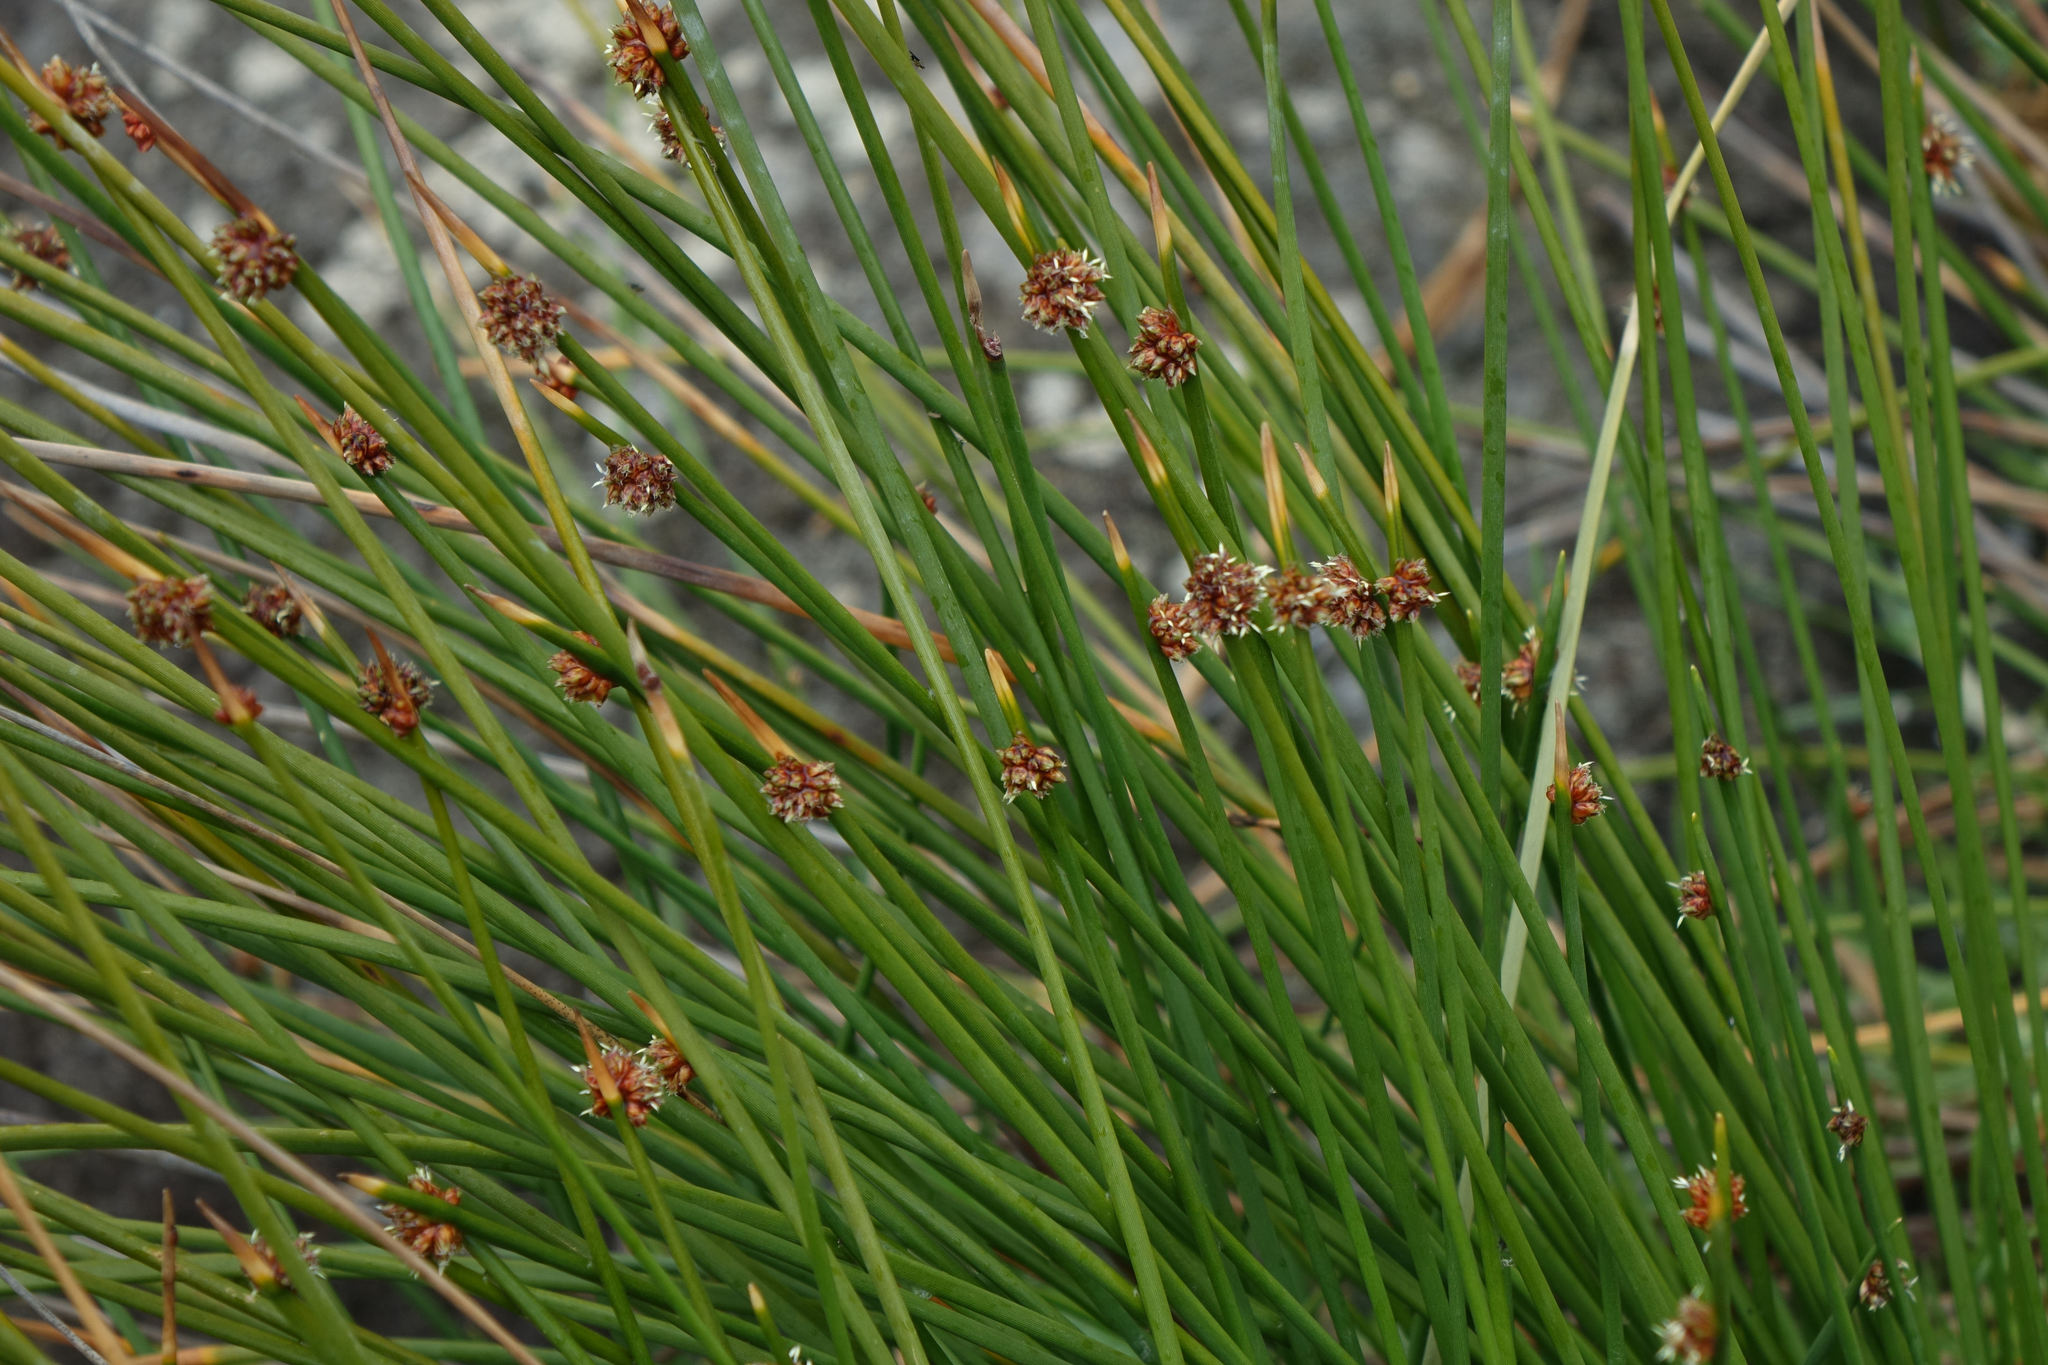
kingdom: Plantae
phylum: Tracheophyta
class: Liliopsida
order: Poales
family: Cyperaceae
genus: Ficinia
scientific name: Ficinia nodosa
